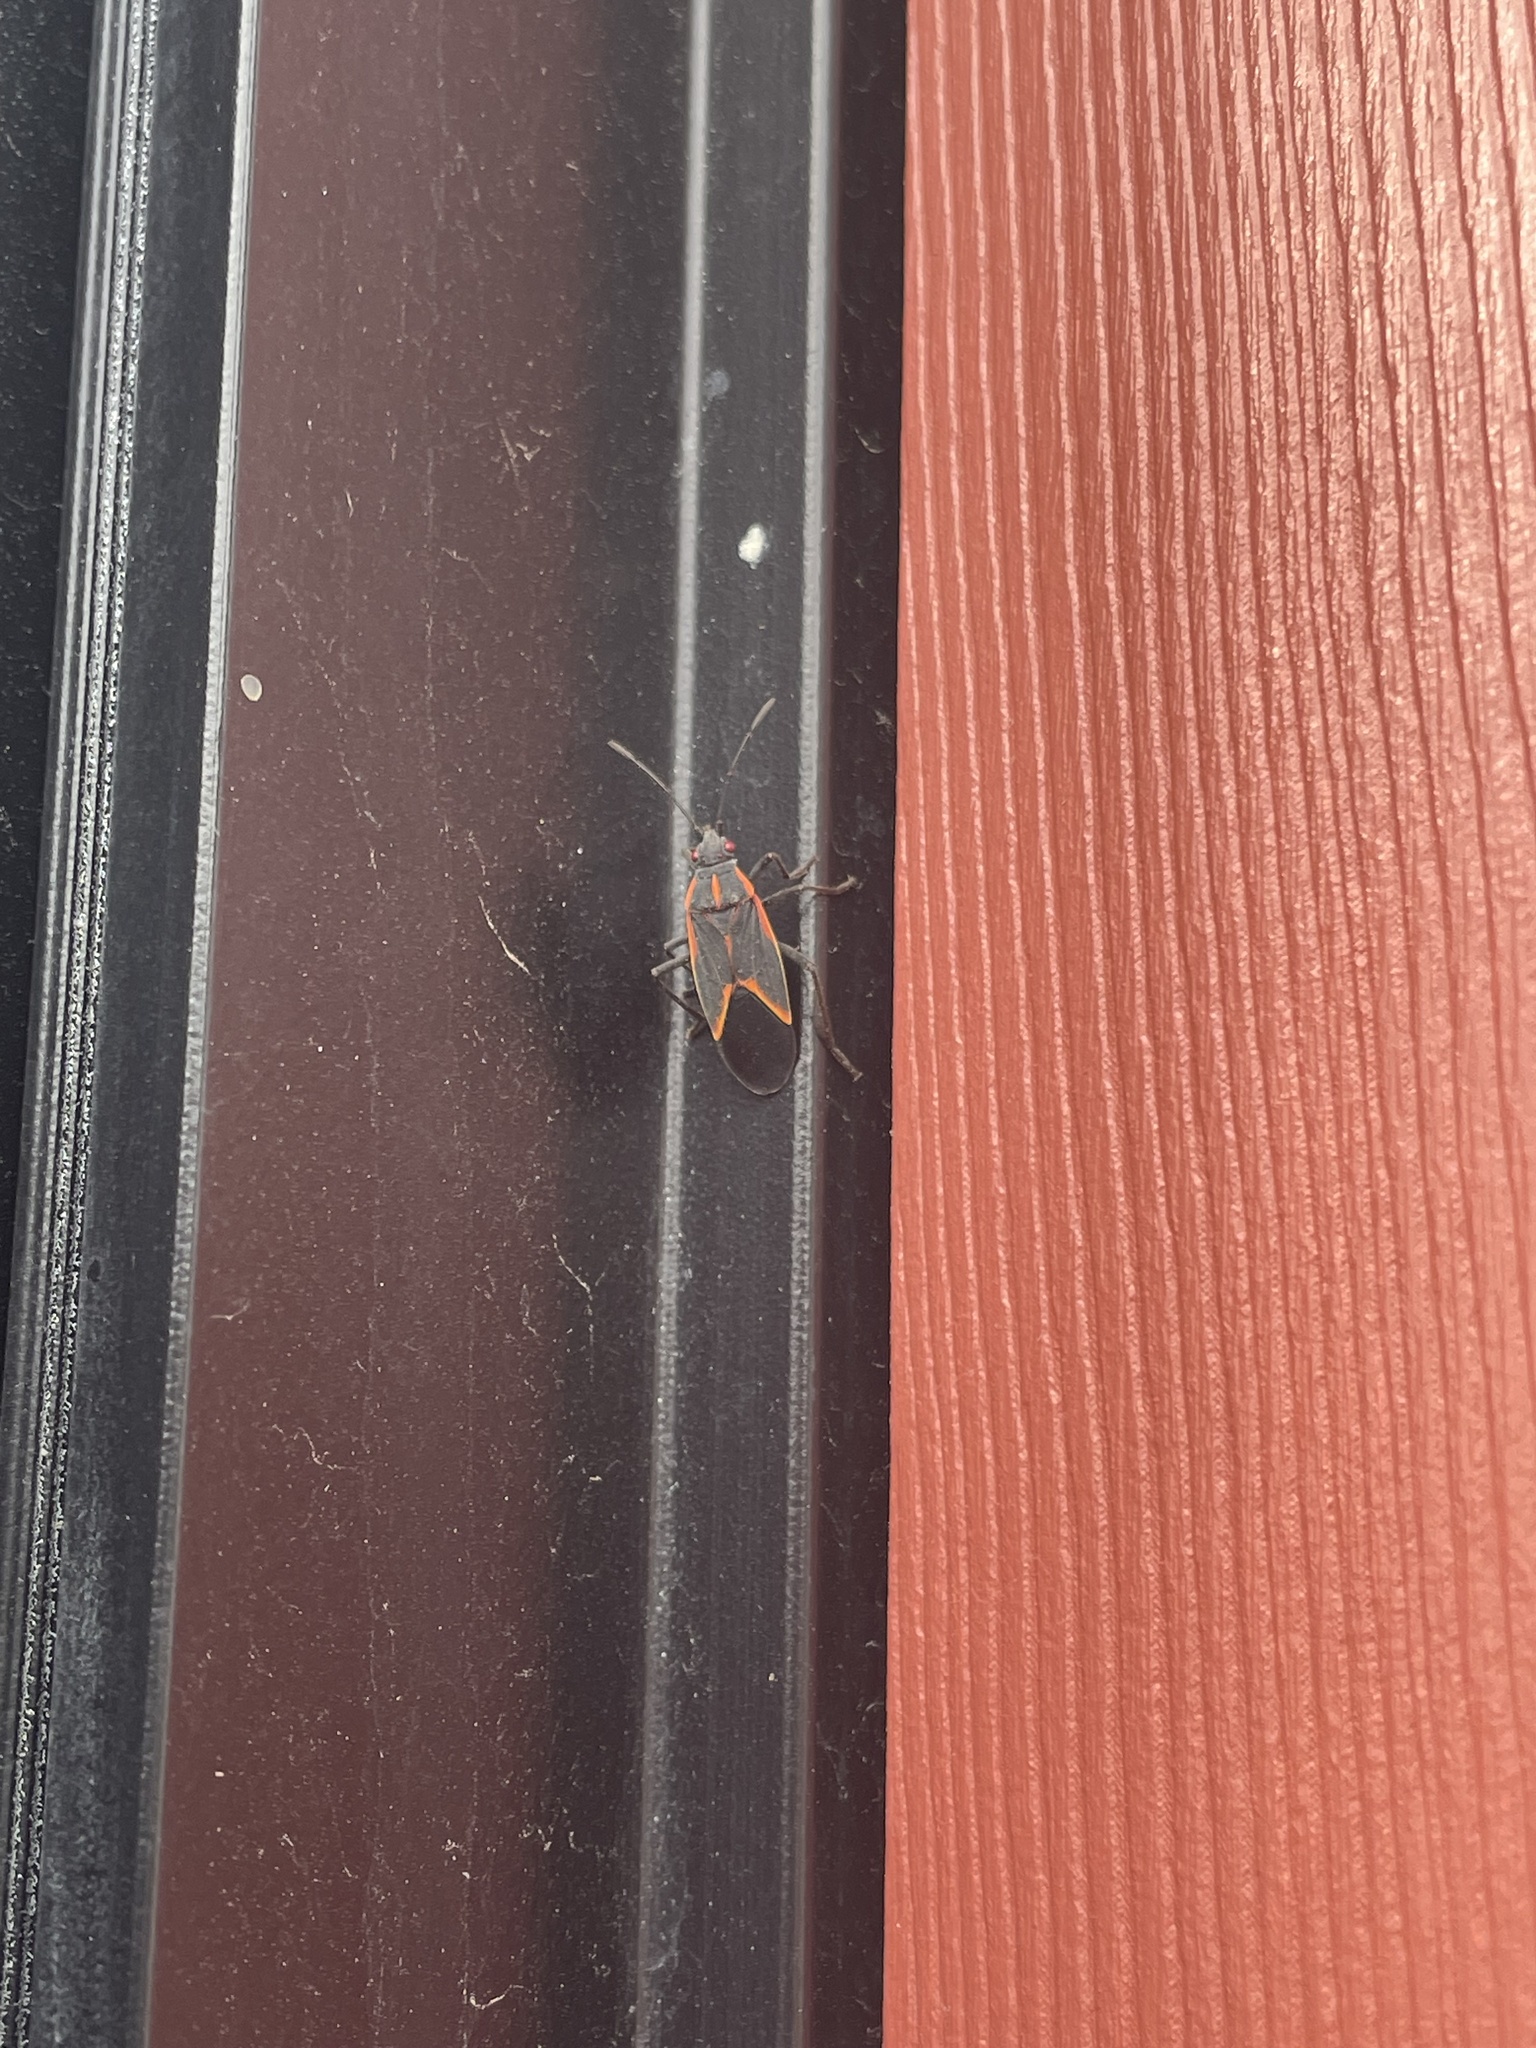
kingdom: Animalia
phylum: Arthropoda
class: Insecta
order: Hemiptera
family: Rhopalidae
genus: Boisea
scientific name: Boisea trivittata
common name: Boxelder bug
